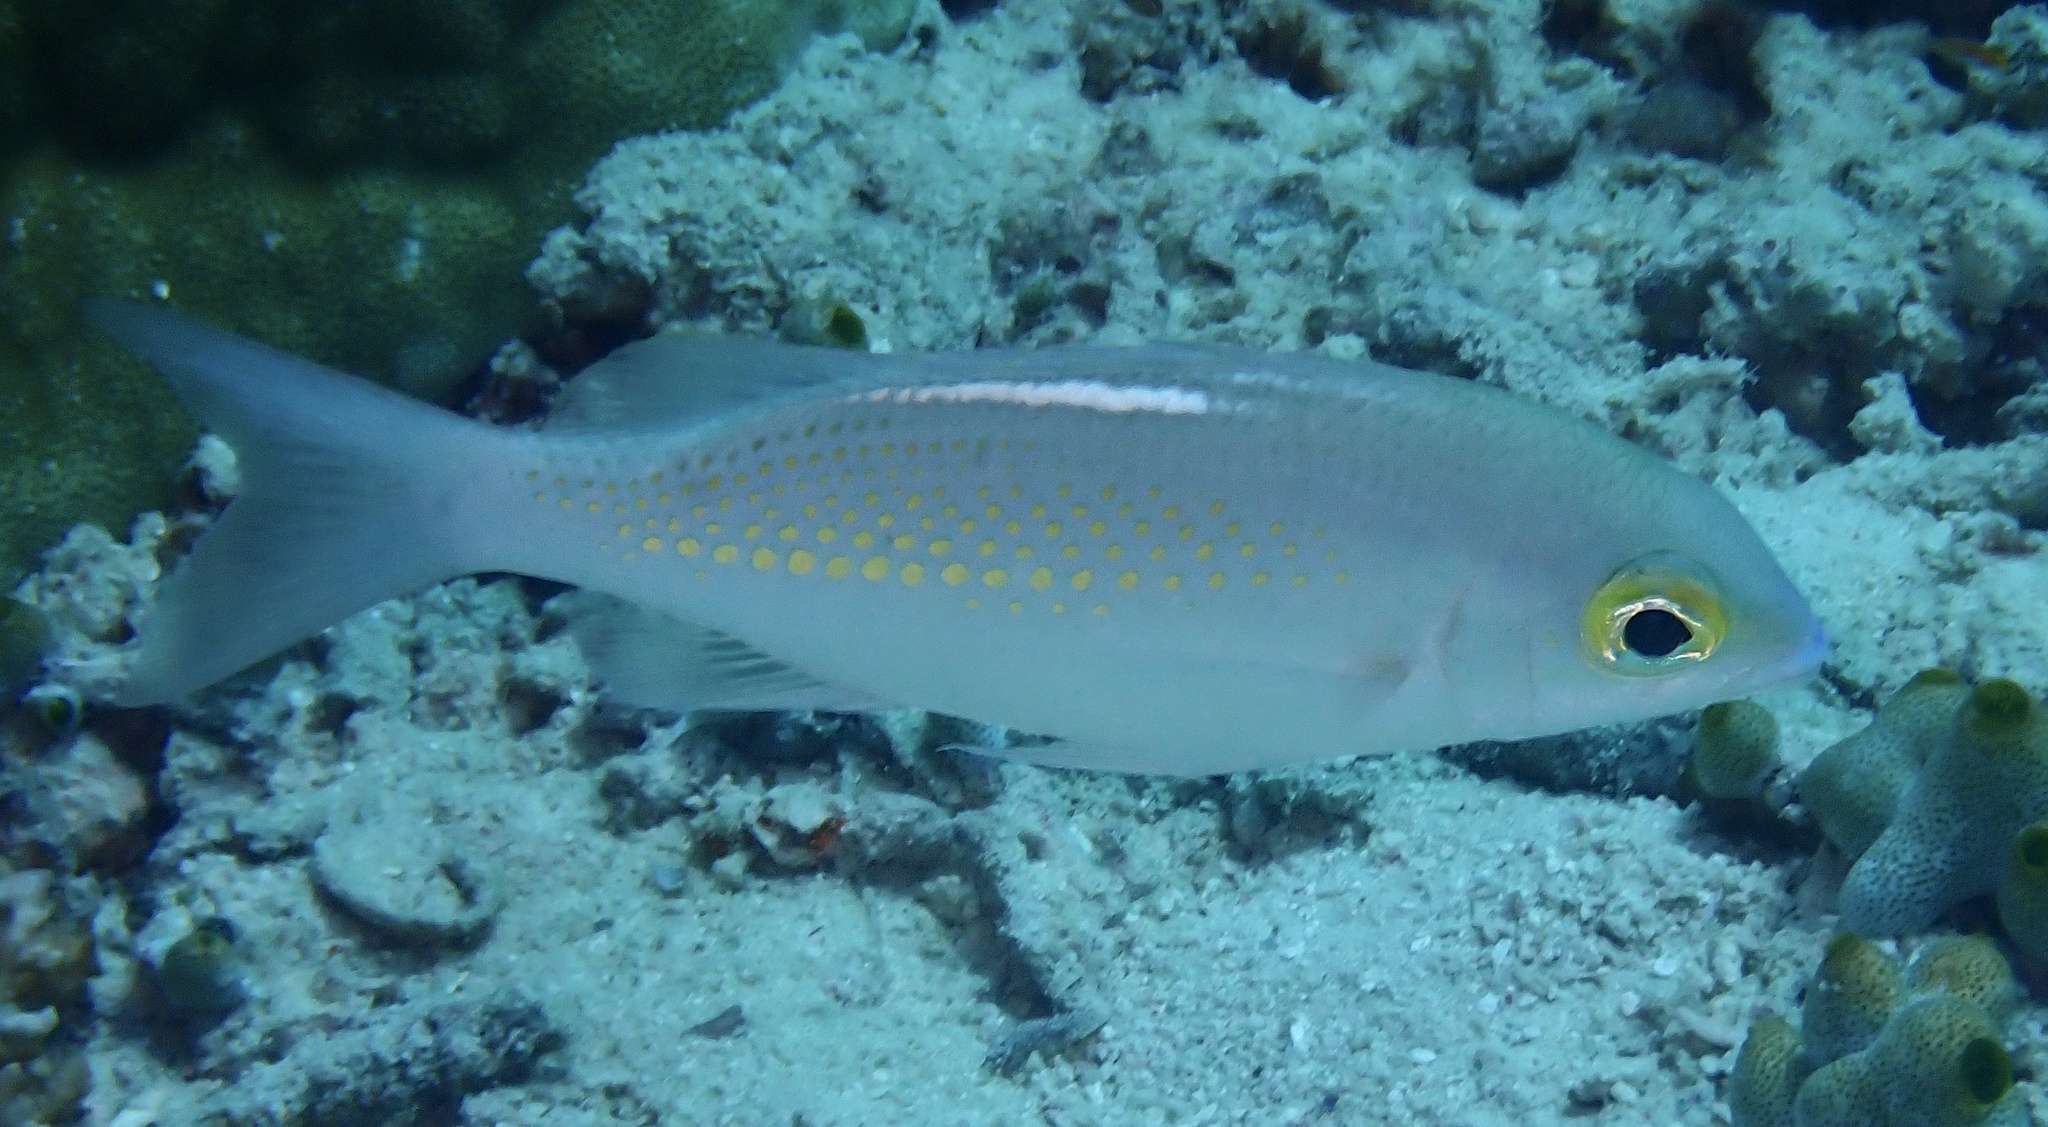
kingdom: Animalia
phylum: Chordata
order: Perciformes
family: Nemipteridae
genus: Scolopsis
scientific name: Scolopsis ciliata
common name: Ciliate spinecheek
